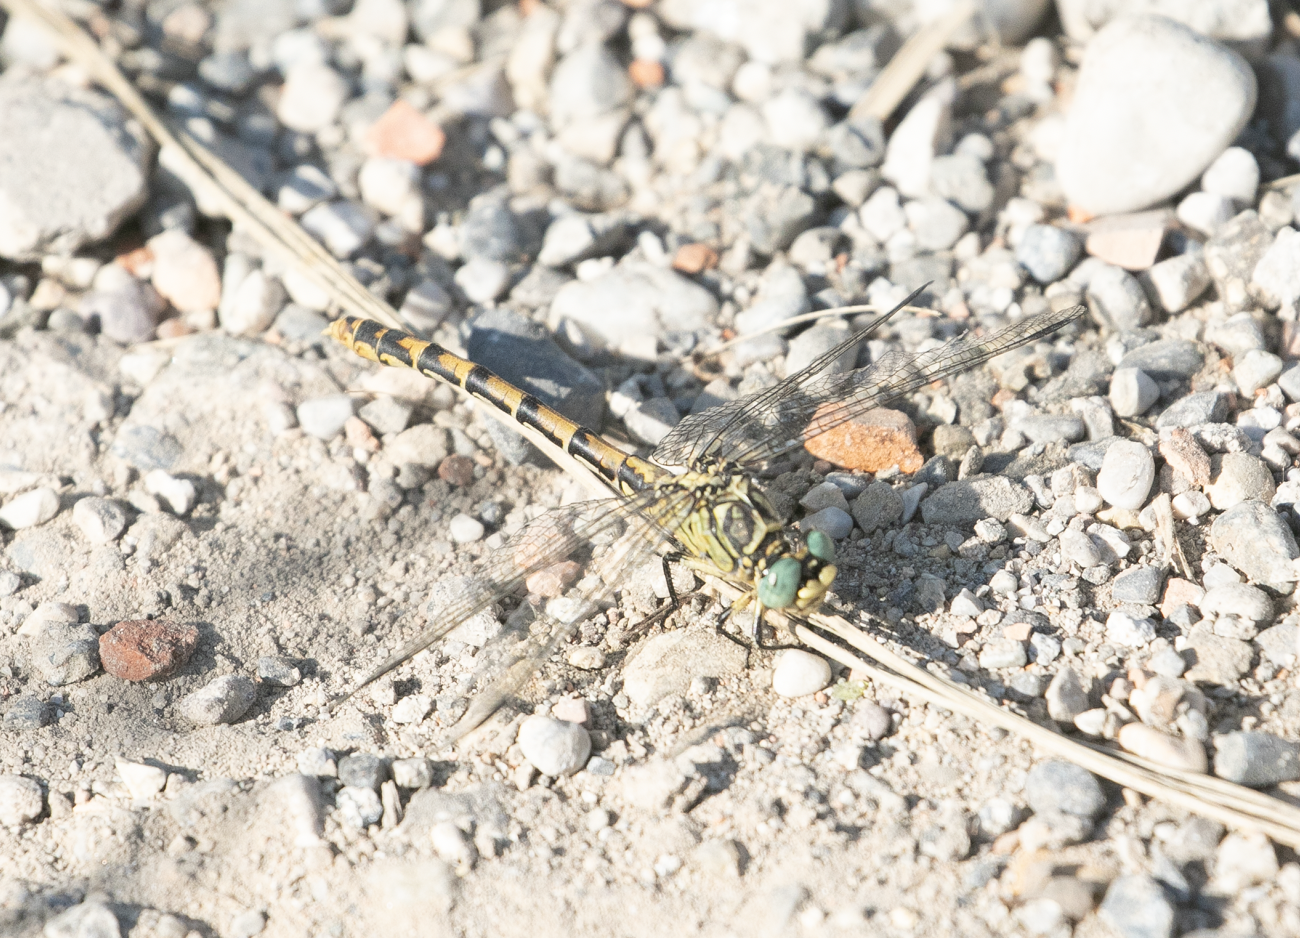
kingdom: Animalia
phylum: Arthropoda
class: Insecta
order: Odonata
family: Gomphidae
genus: Onychogomphus
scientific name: Onychogomphus forcipatus
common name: Small pincertail
